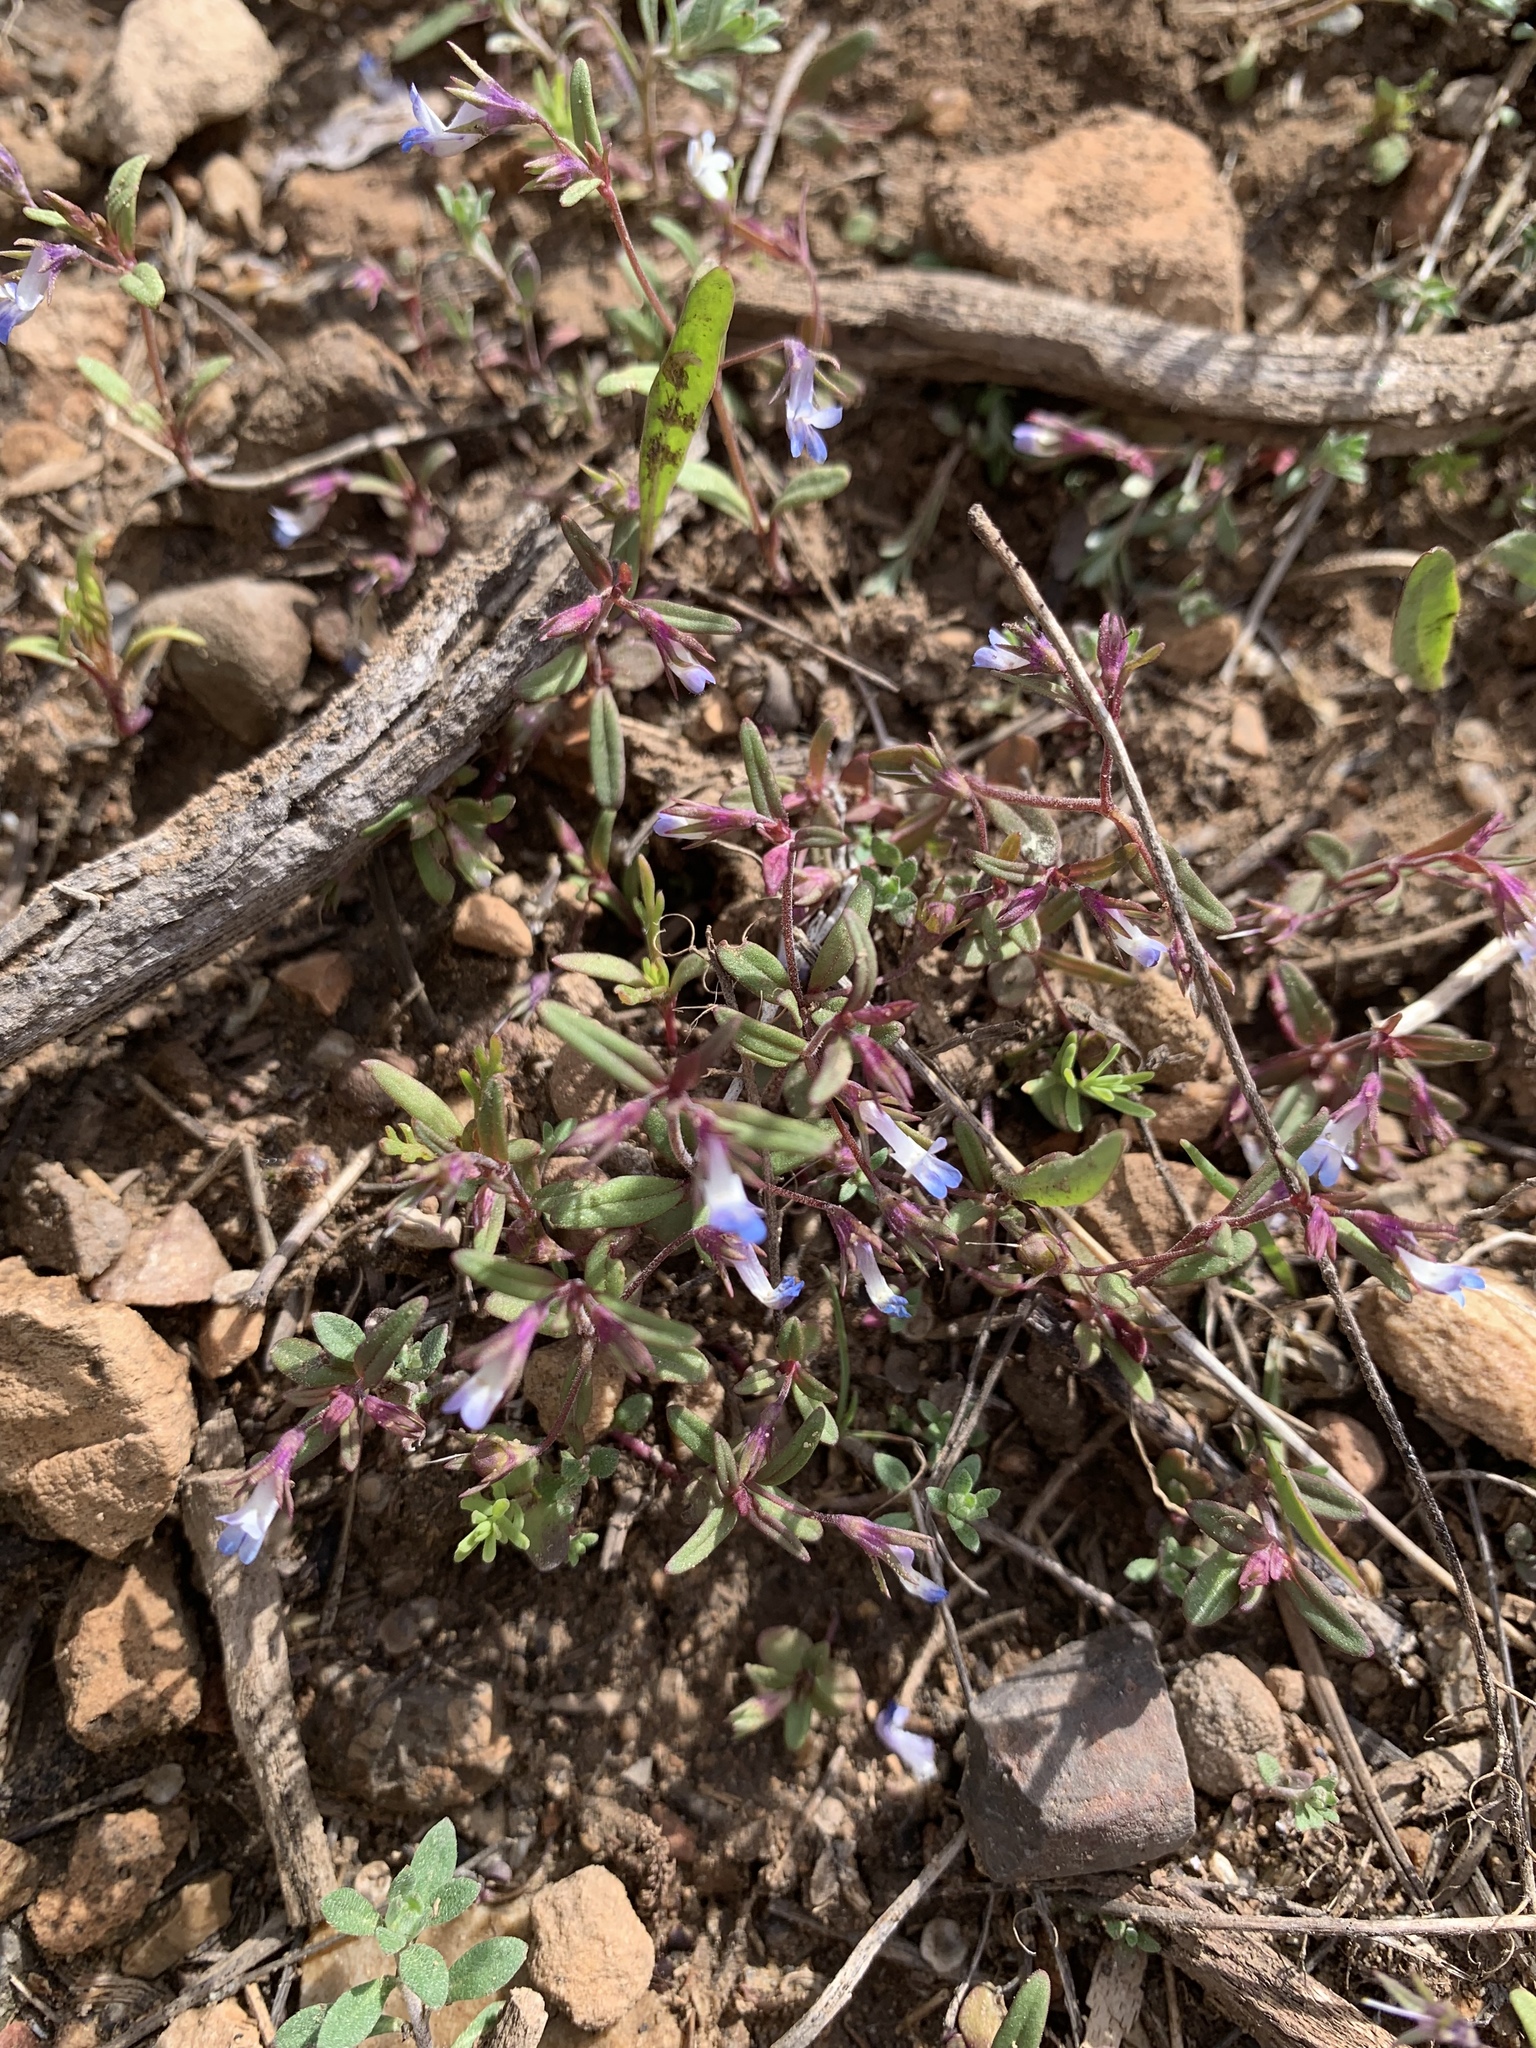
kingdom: Plantae
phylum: Tracheophyta
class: Magnoliopsida
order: Lamiales
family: Plantaginaceae
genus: Collinsia
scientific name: Collinsia parviflora
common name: Blue-lips
